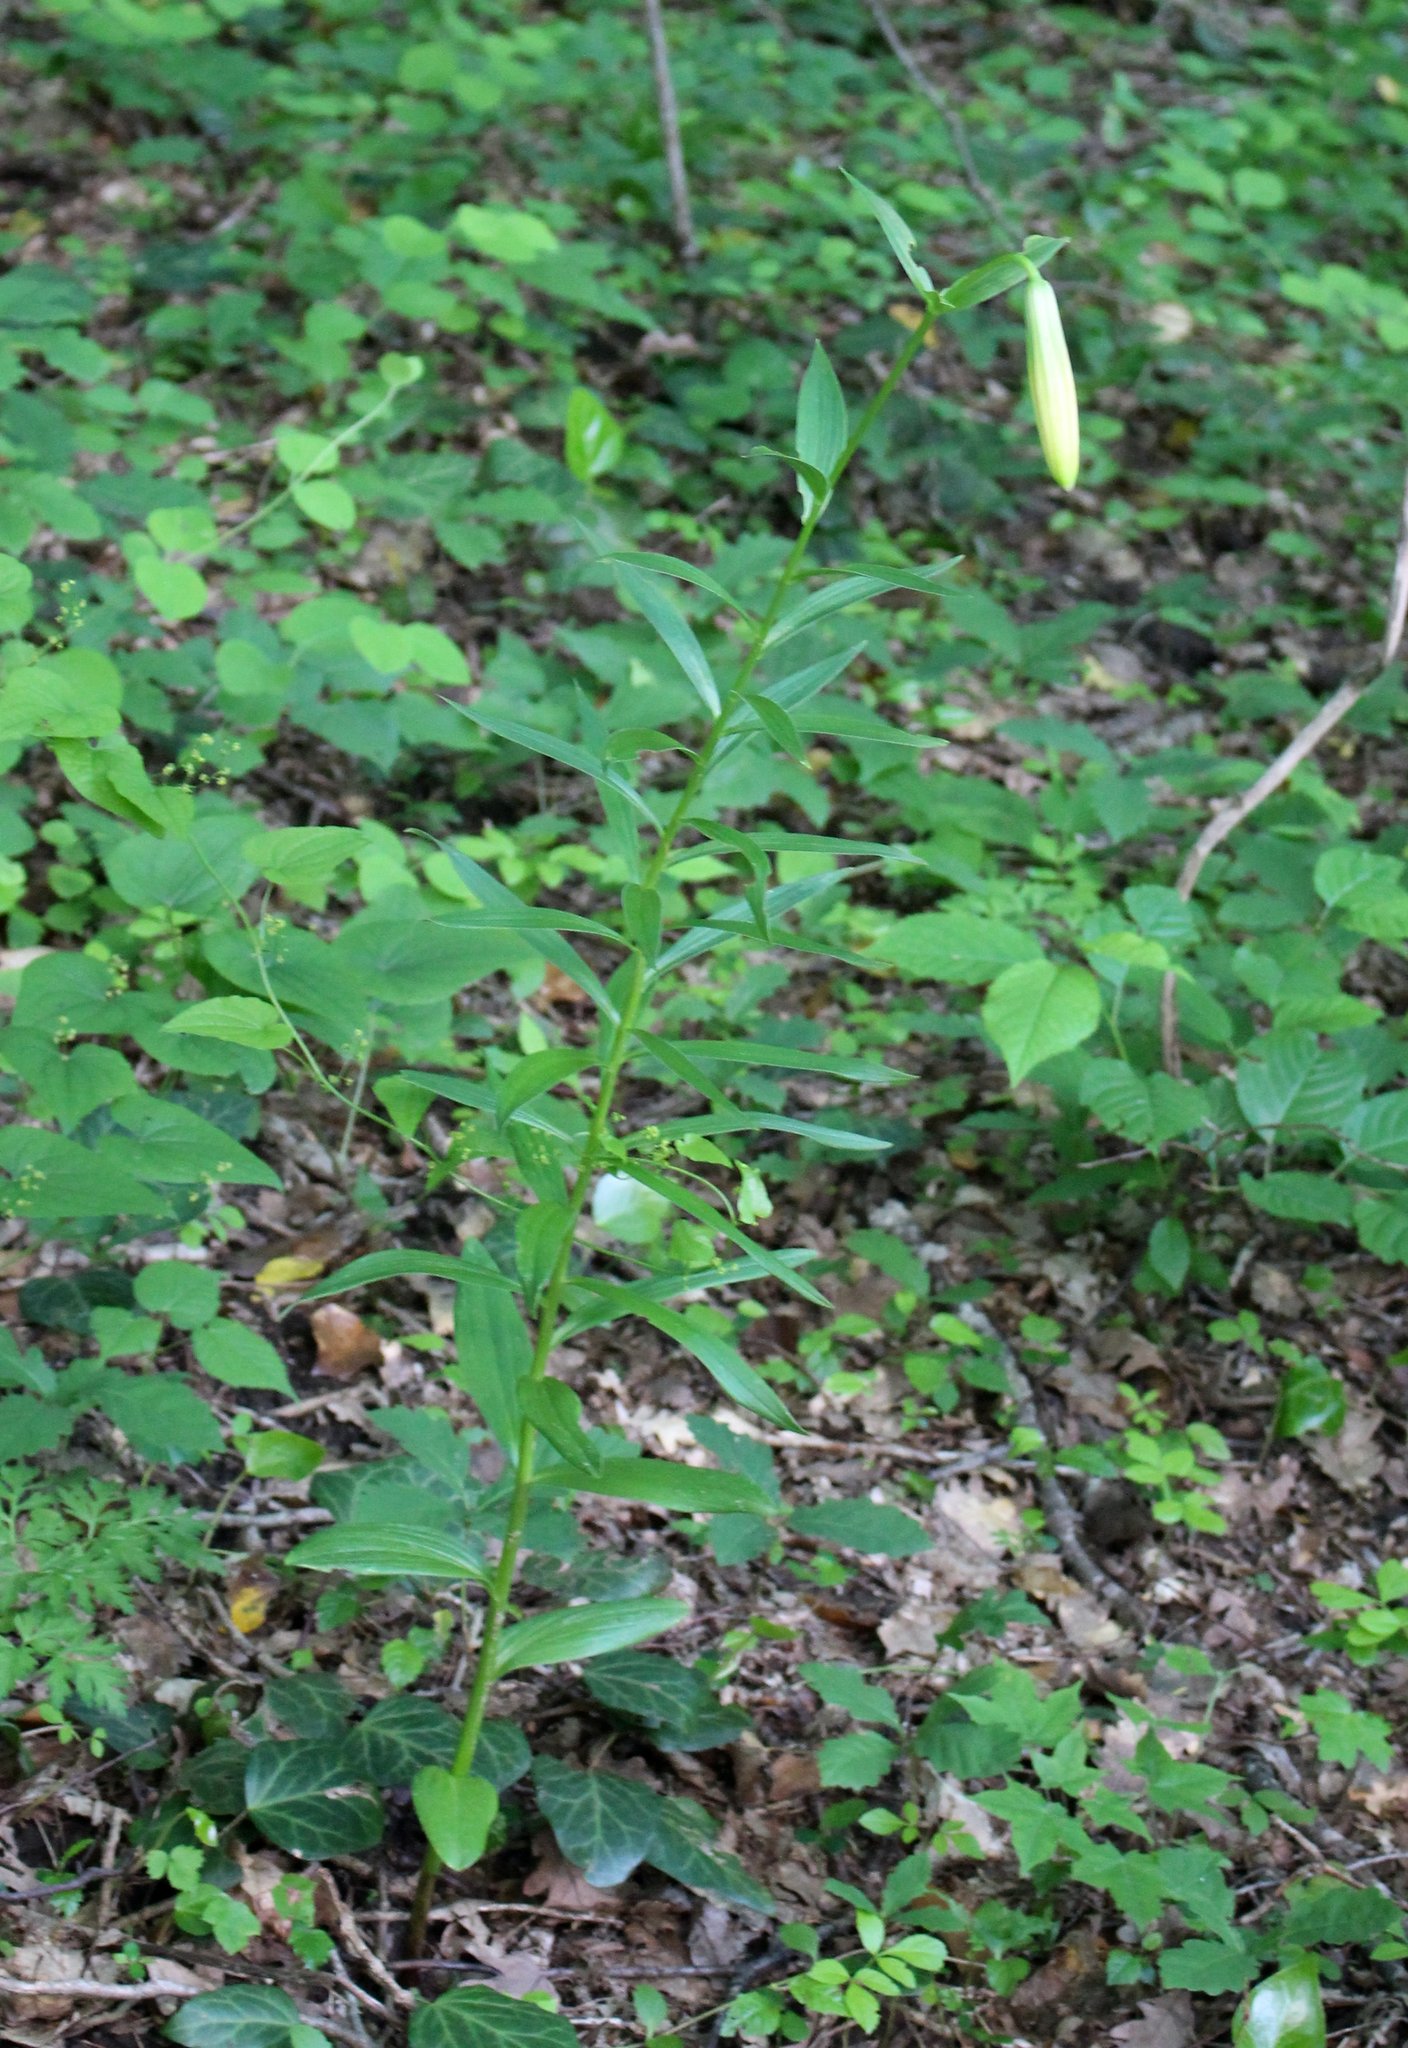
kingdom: Plantae
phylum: Tracheophyta
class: Liliopsida
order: Liliales
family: Liliaceae
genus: Lilium
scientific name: Lilium monadelphum
